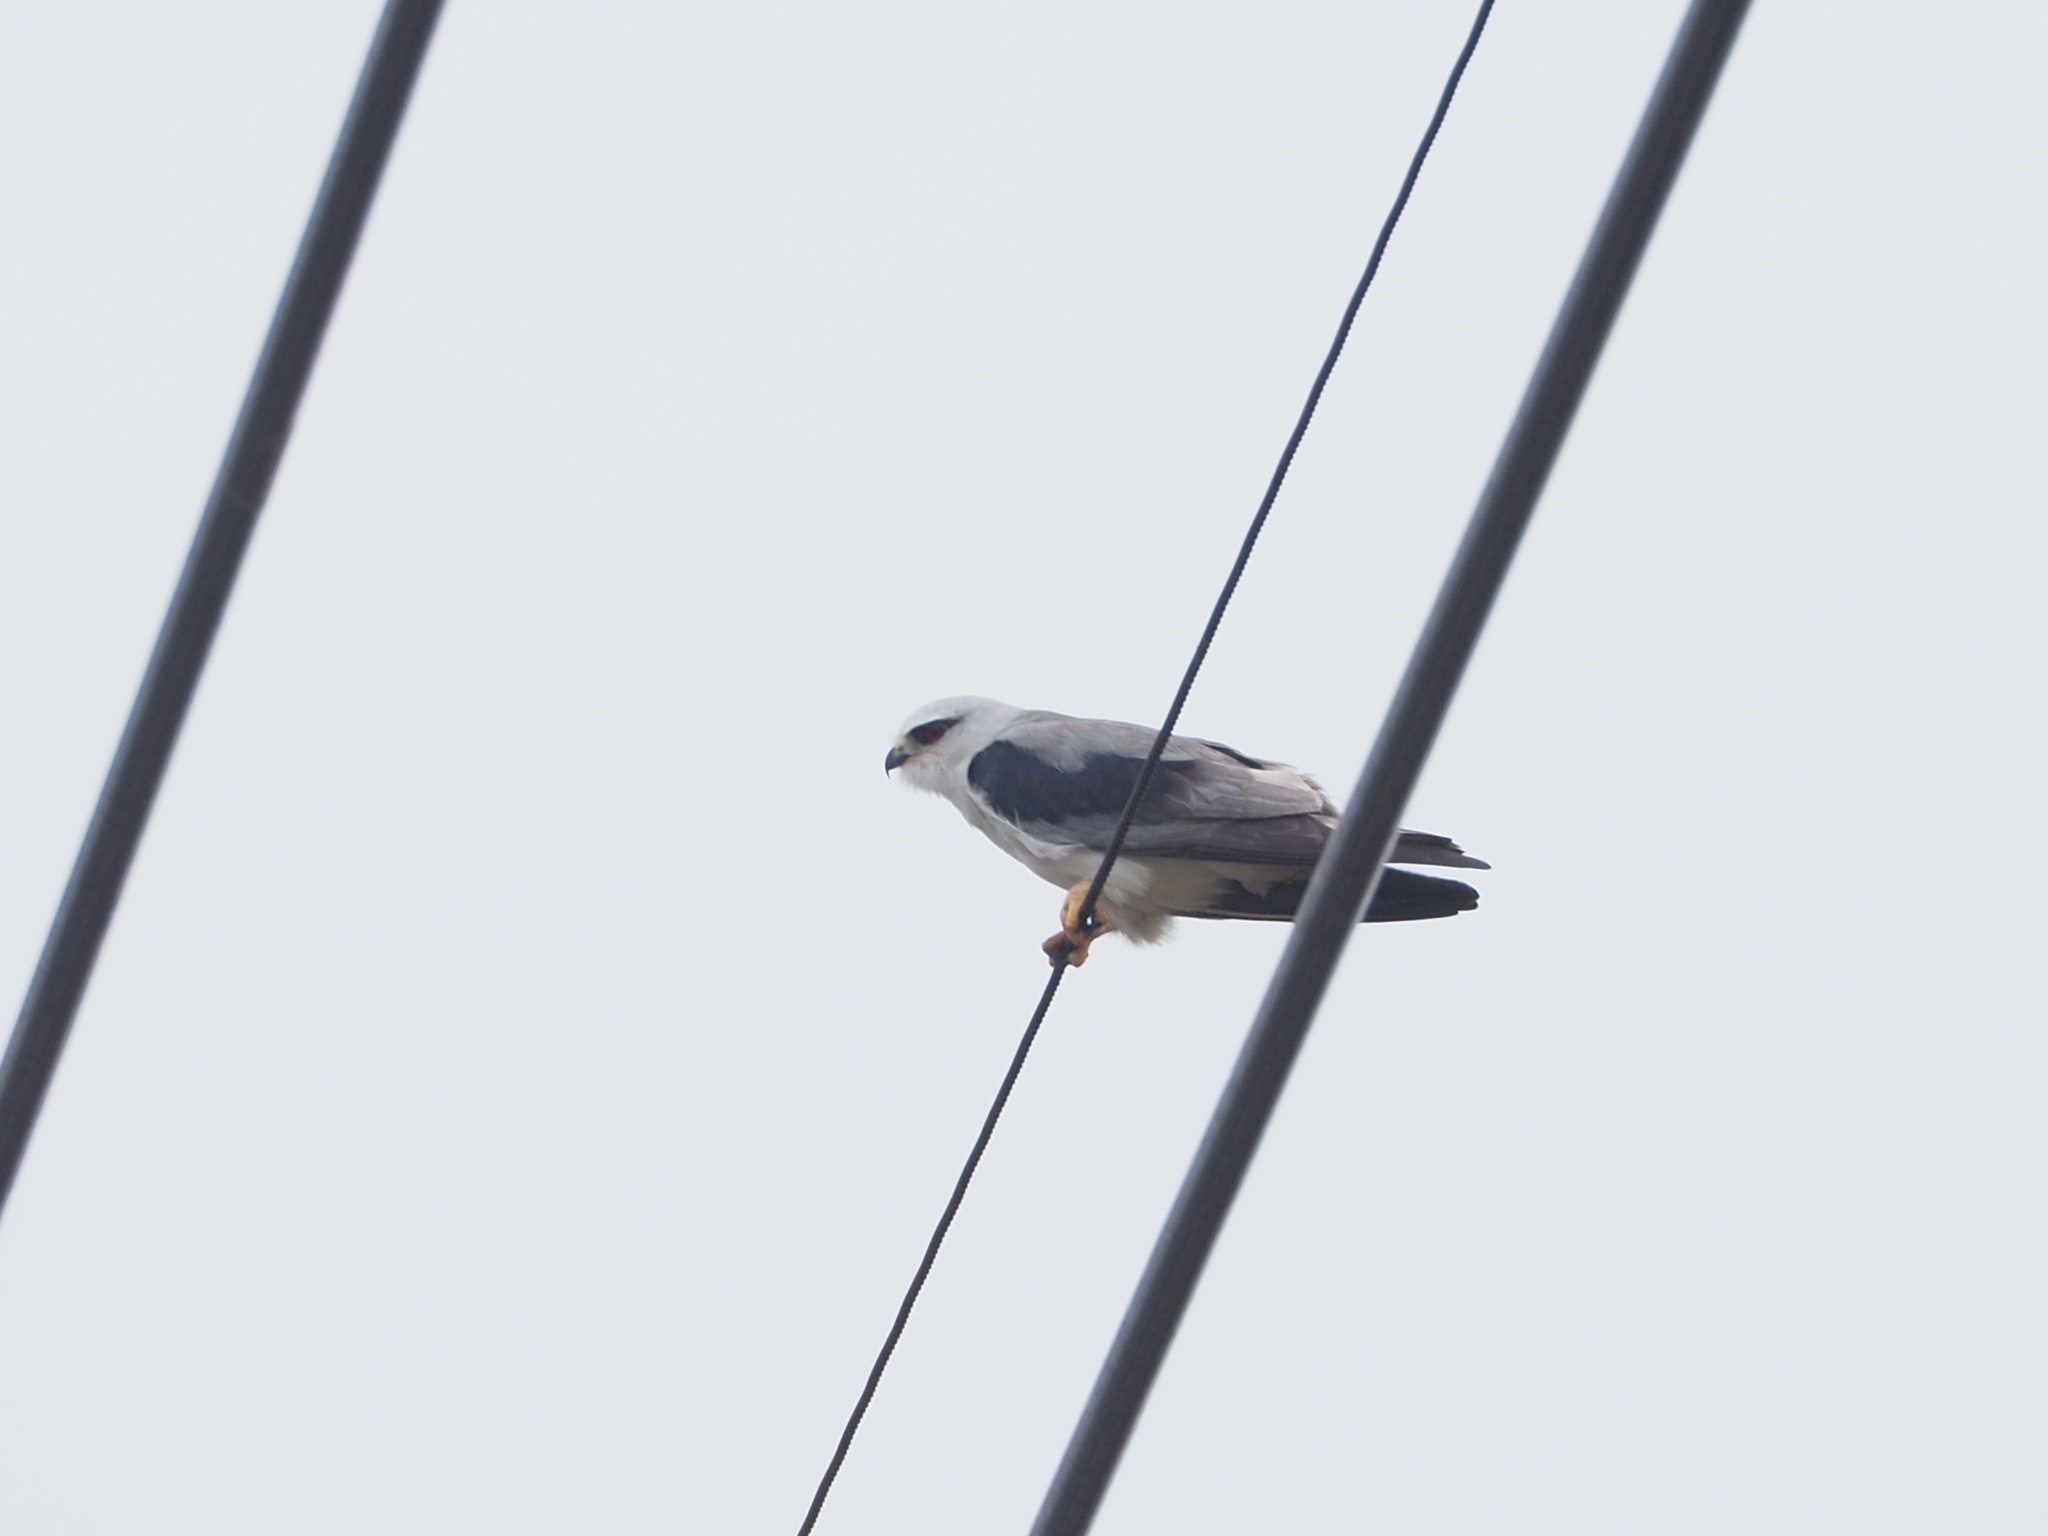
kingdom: Animalia
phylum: Chordata
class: Aves
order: Accipitriformes
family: Accipitridae
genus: Elanus
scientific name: Elanus caeruleus
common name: Black-winged kite
